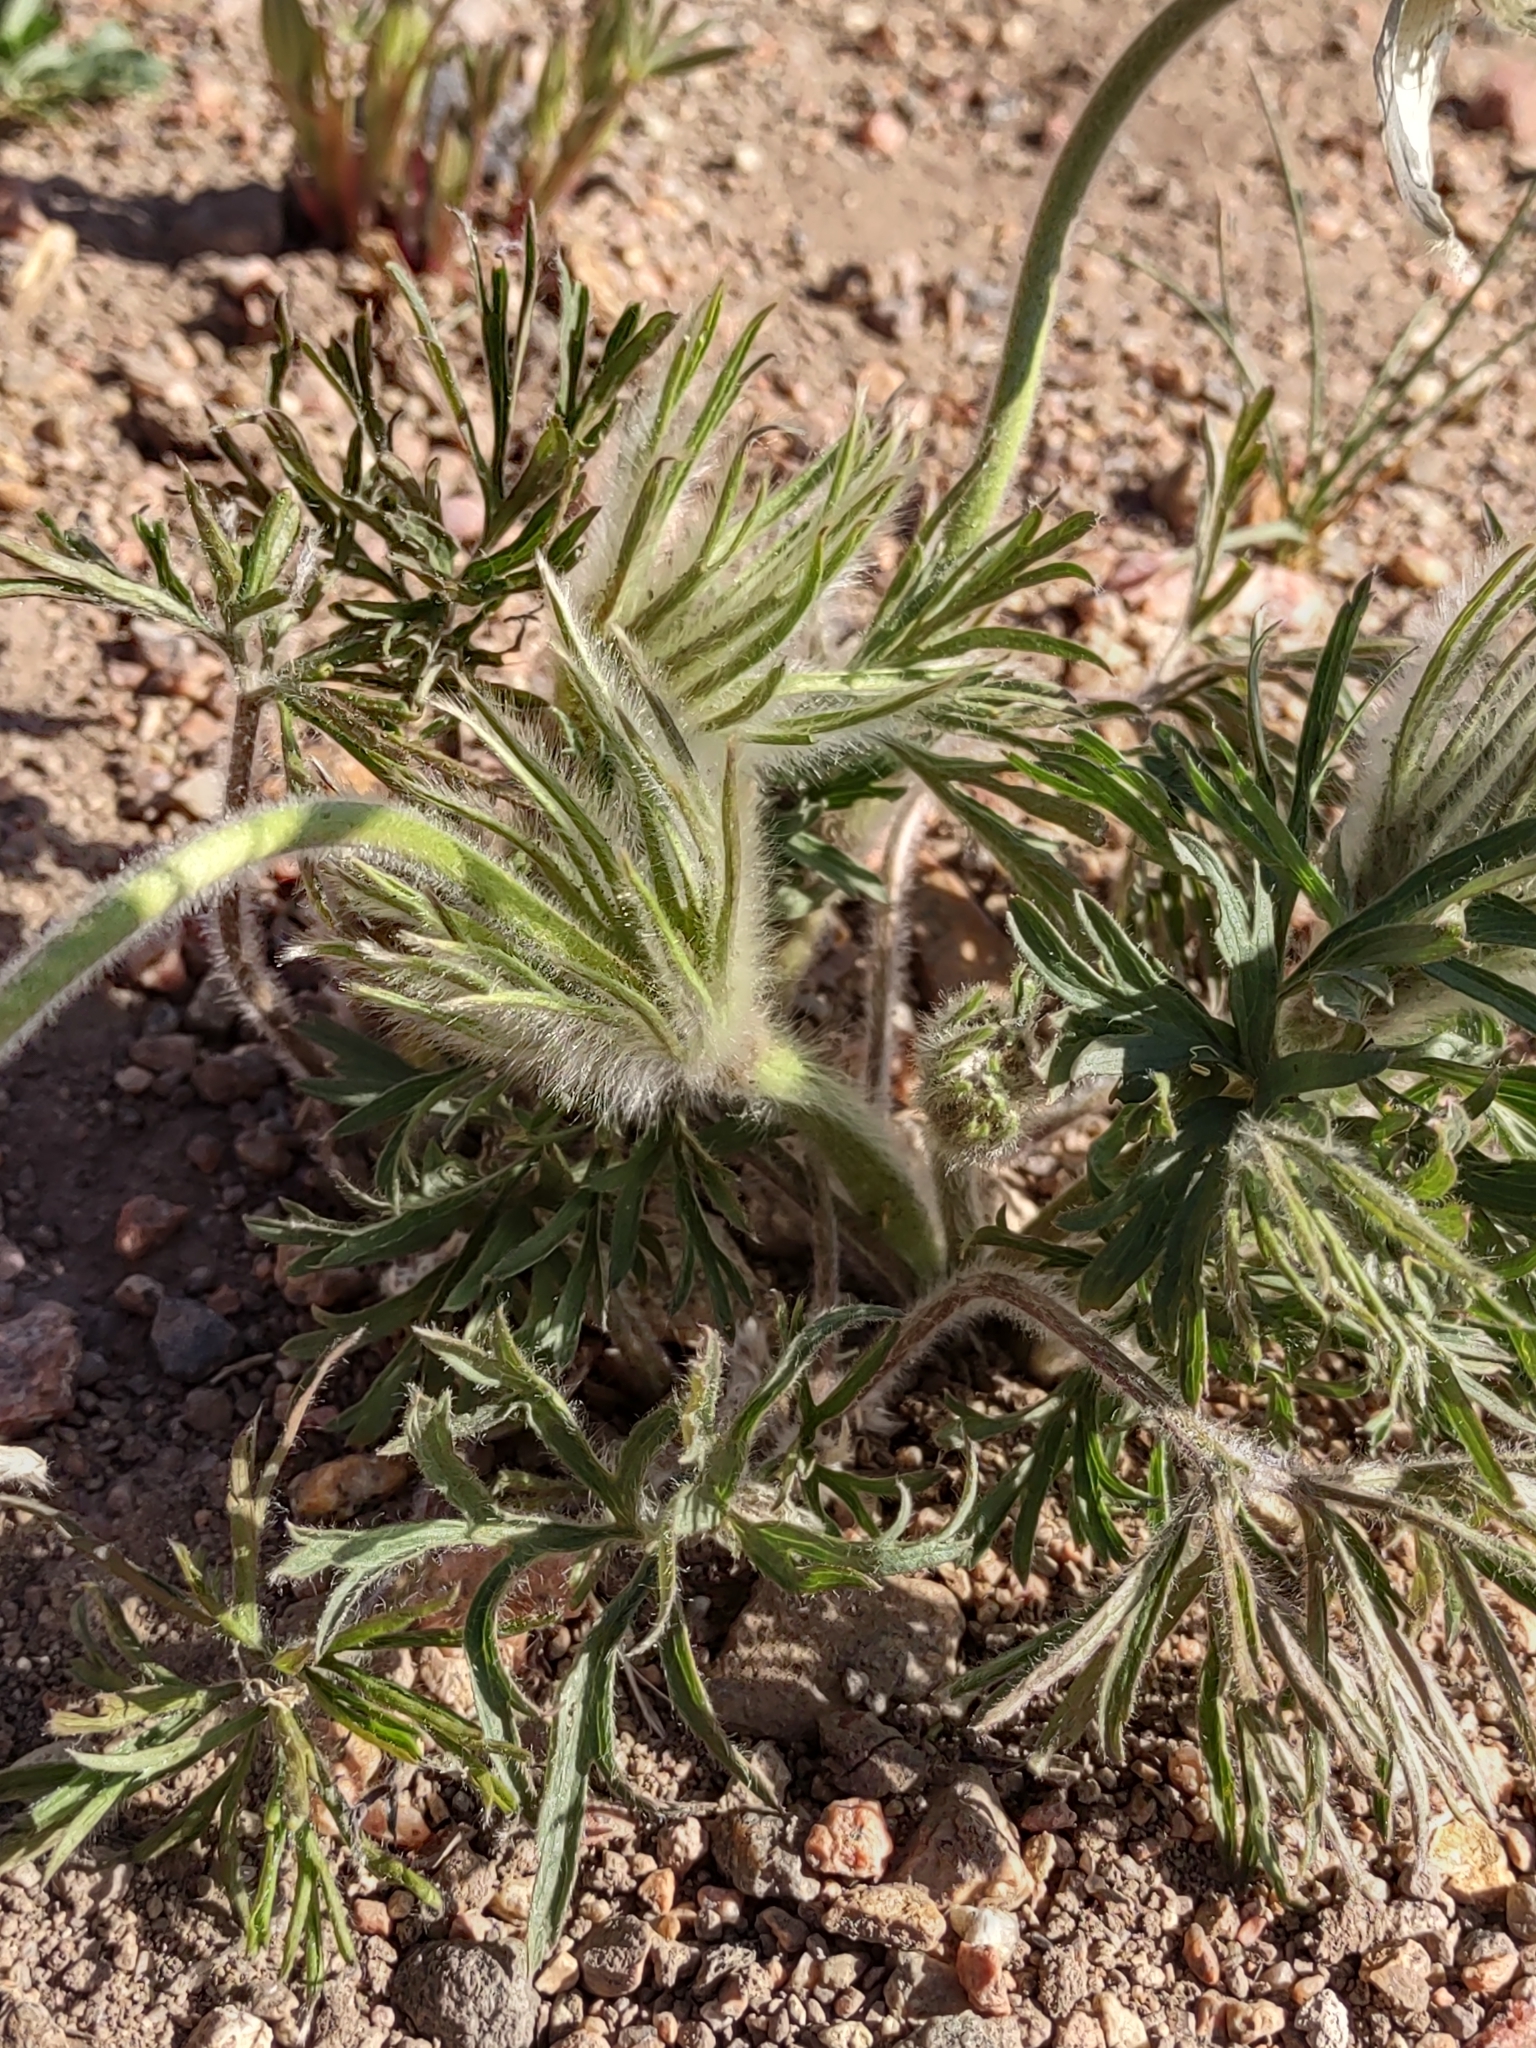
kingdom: Plantae
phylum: Tracheophyta
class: Magnoliopsida
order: Ranunculales
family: Ranunculaceae
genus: Pulsatilla
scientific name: Pulsatilla nuttalliana
